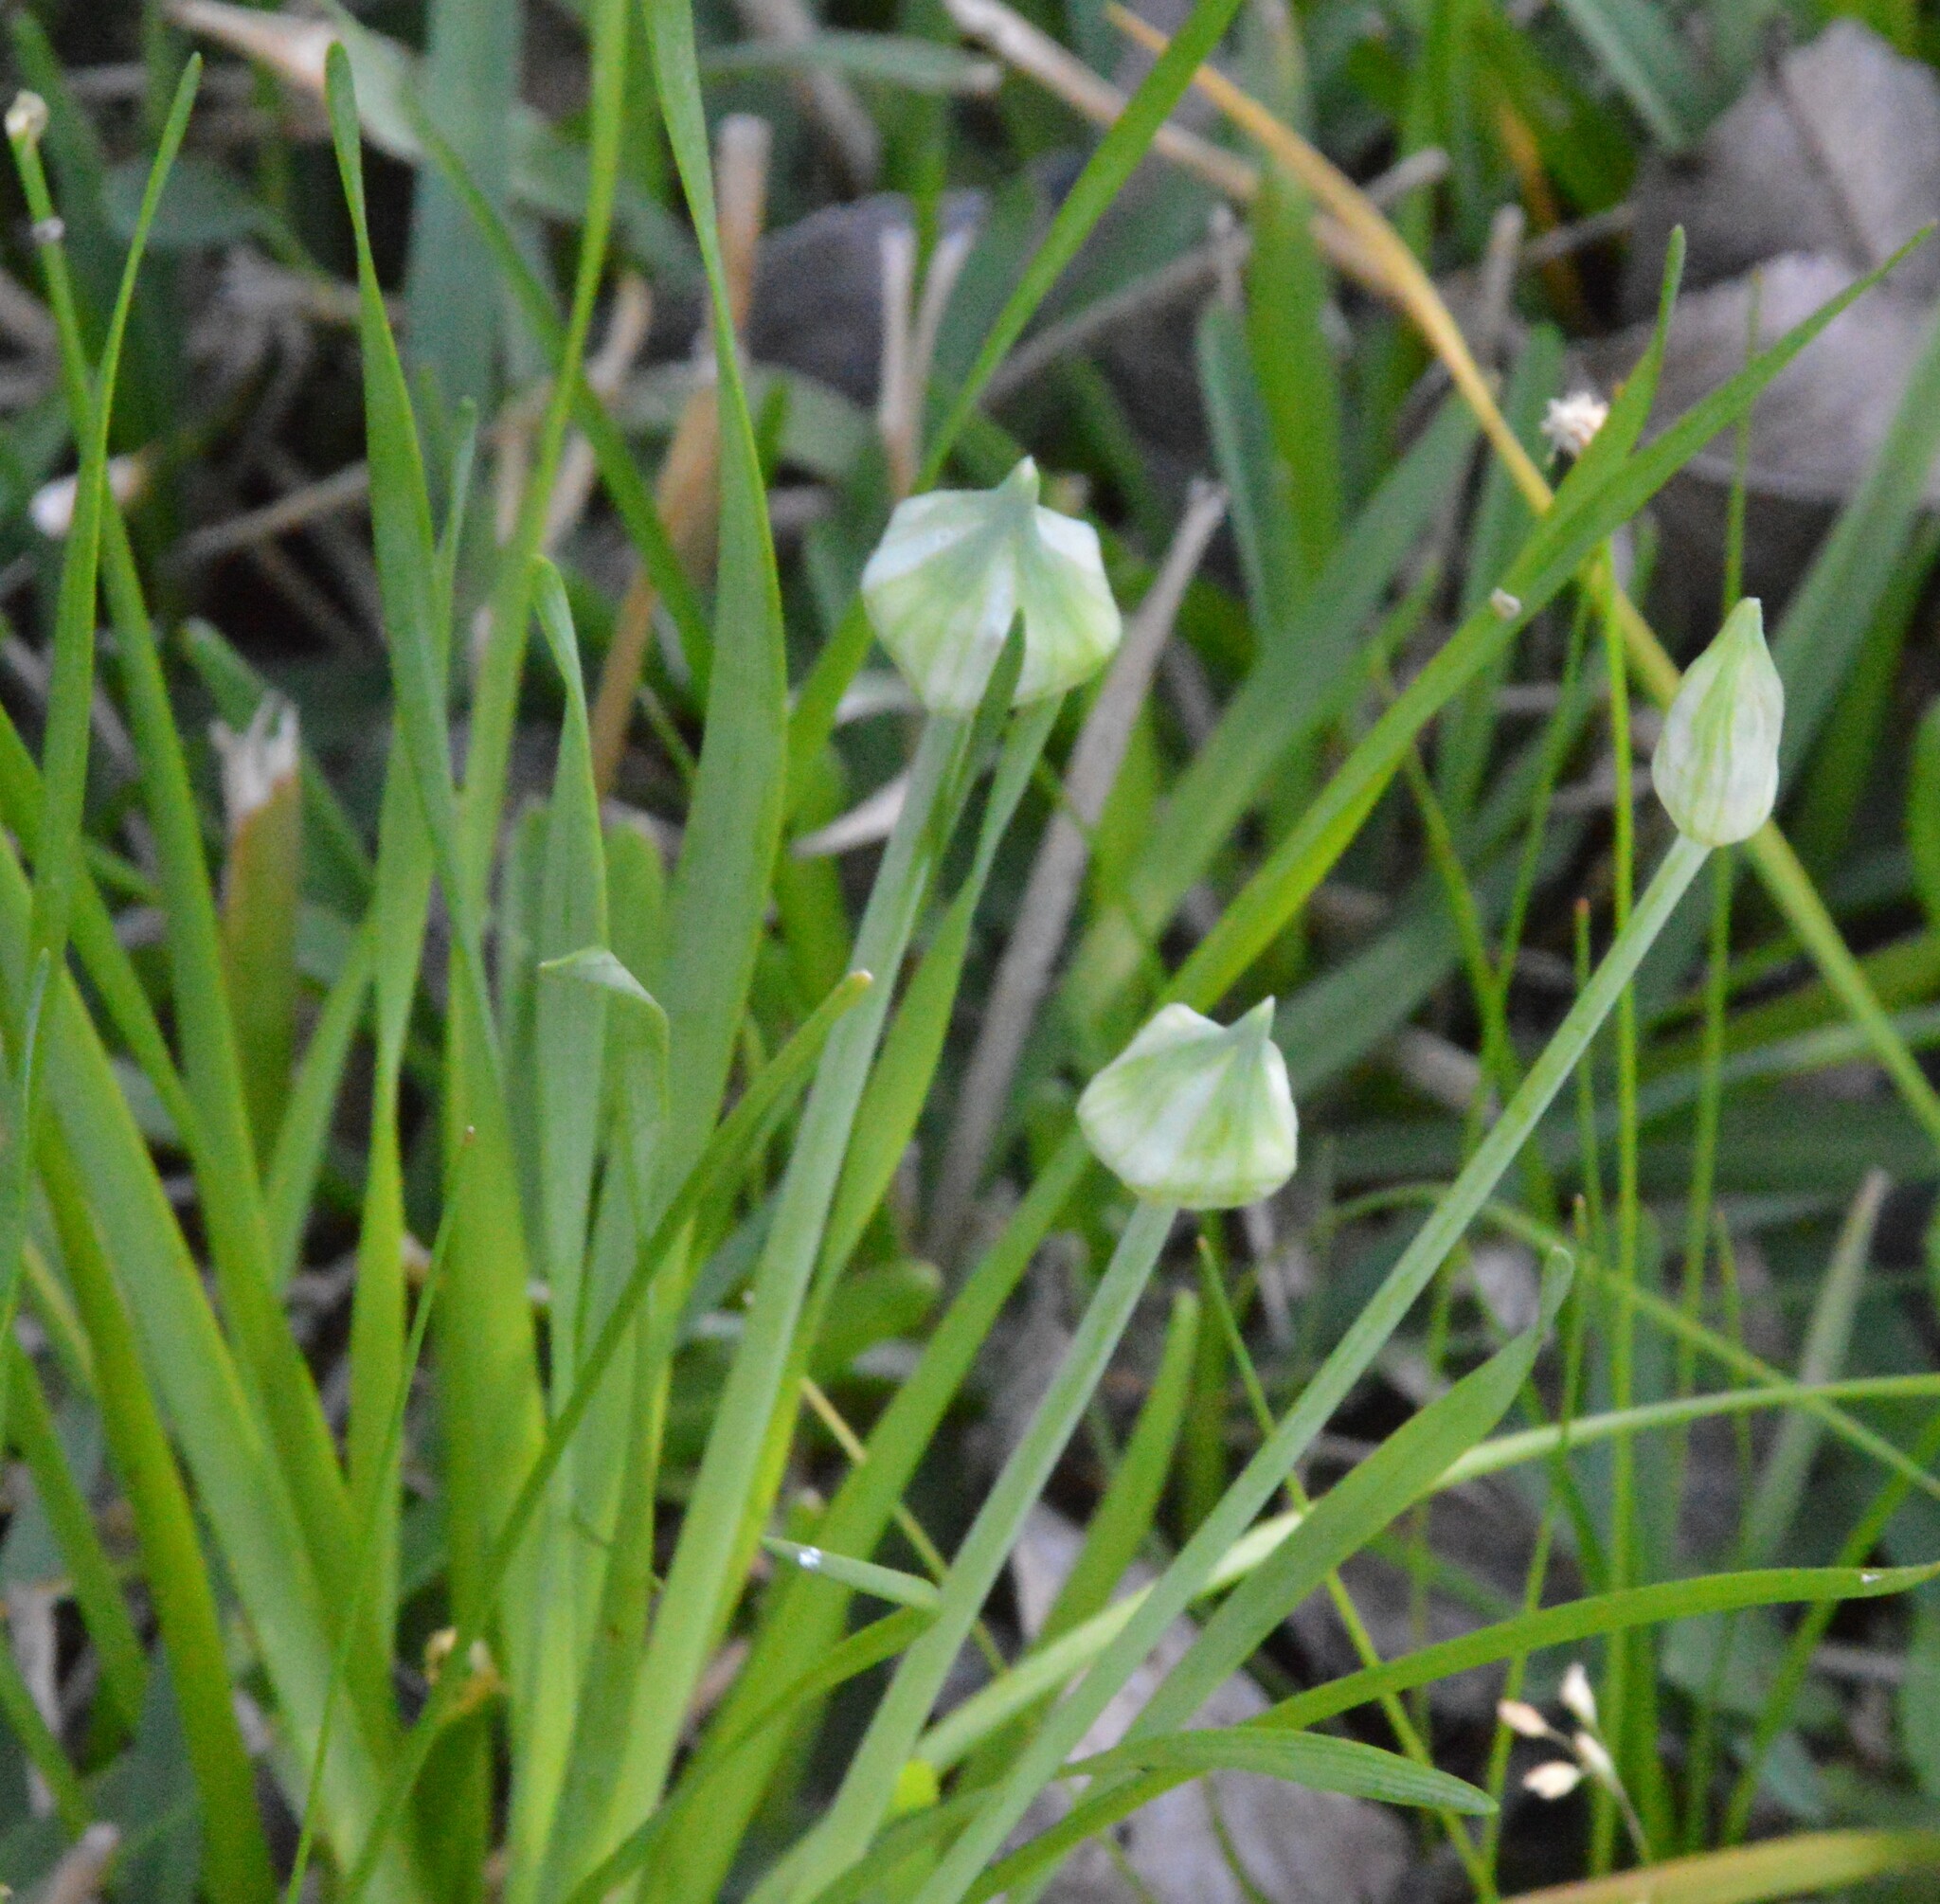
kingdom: Plantae
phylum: Tracheophyta
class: Liliopsida
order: Asparagales
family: Amaryllidaceae
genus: Allium
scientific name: Allium canadense
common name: Meadow garlic
